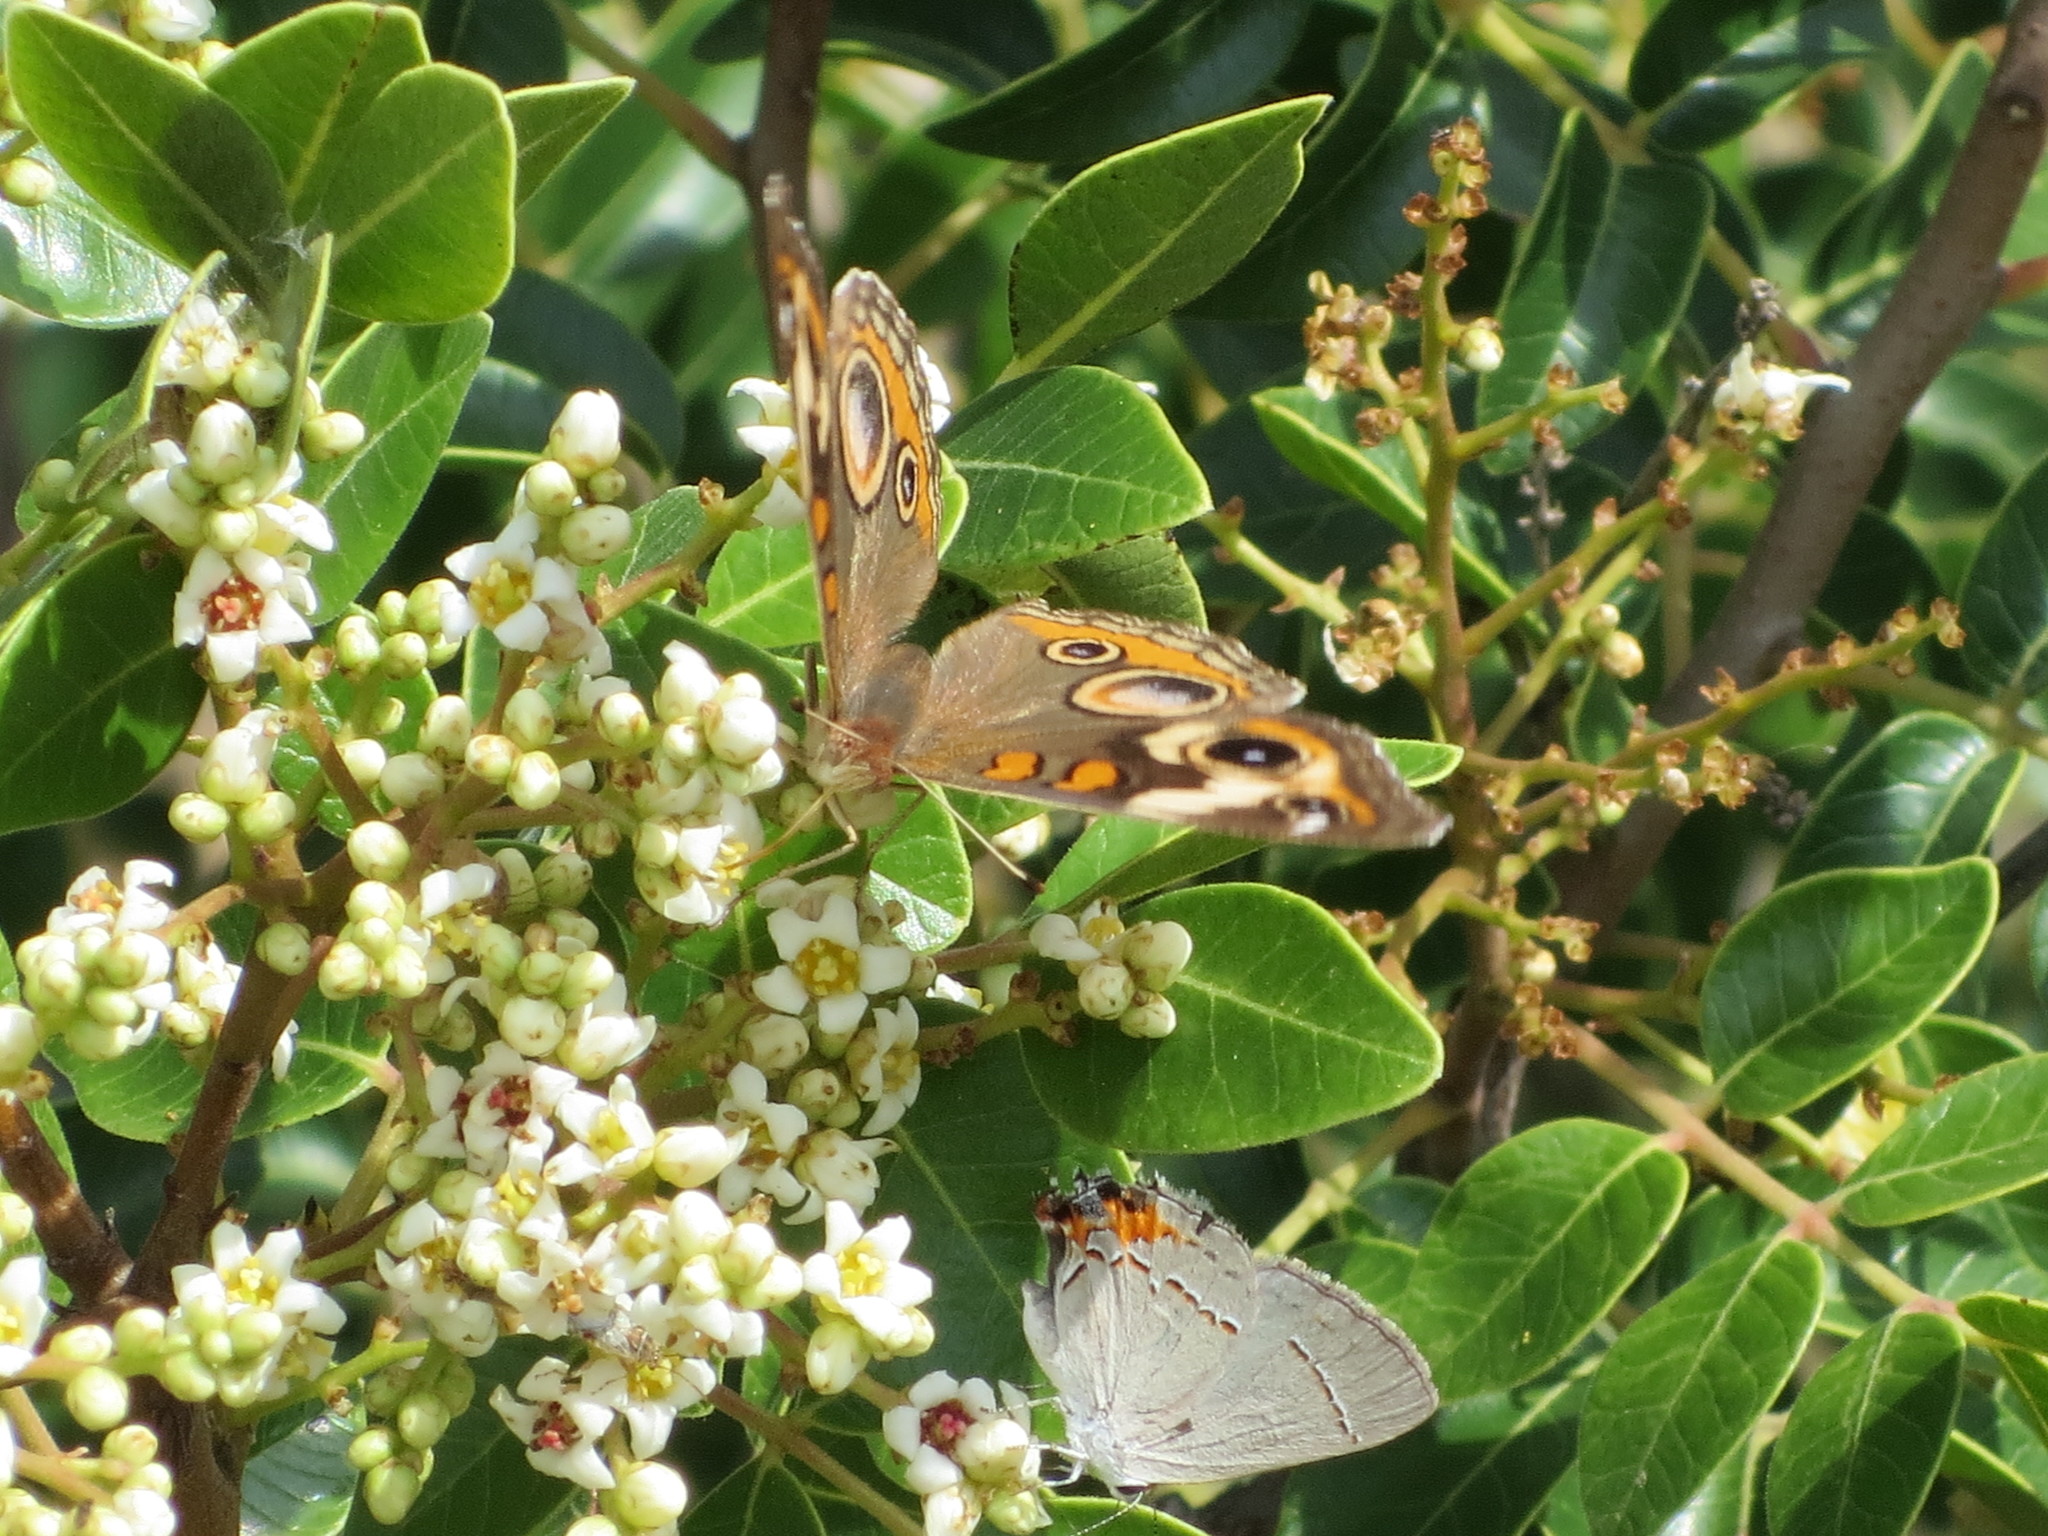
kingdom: Animalia
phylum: Arthropoda
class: Insecta
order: Lepidoptera
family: Nymphalidae
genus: Junonia
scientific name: Junonia coenia
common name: Common buckeye
